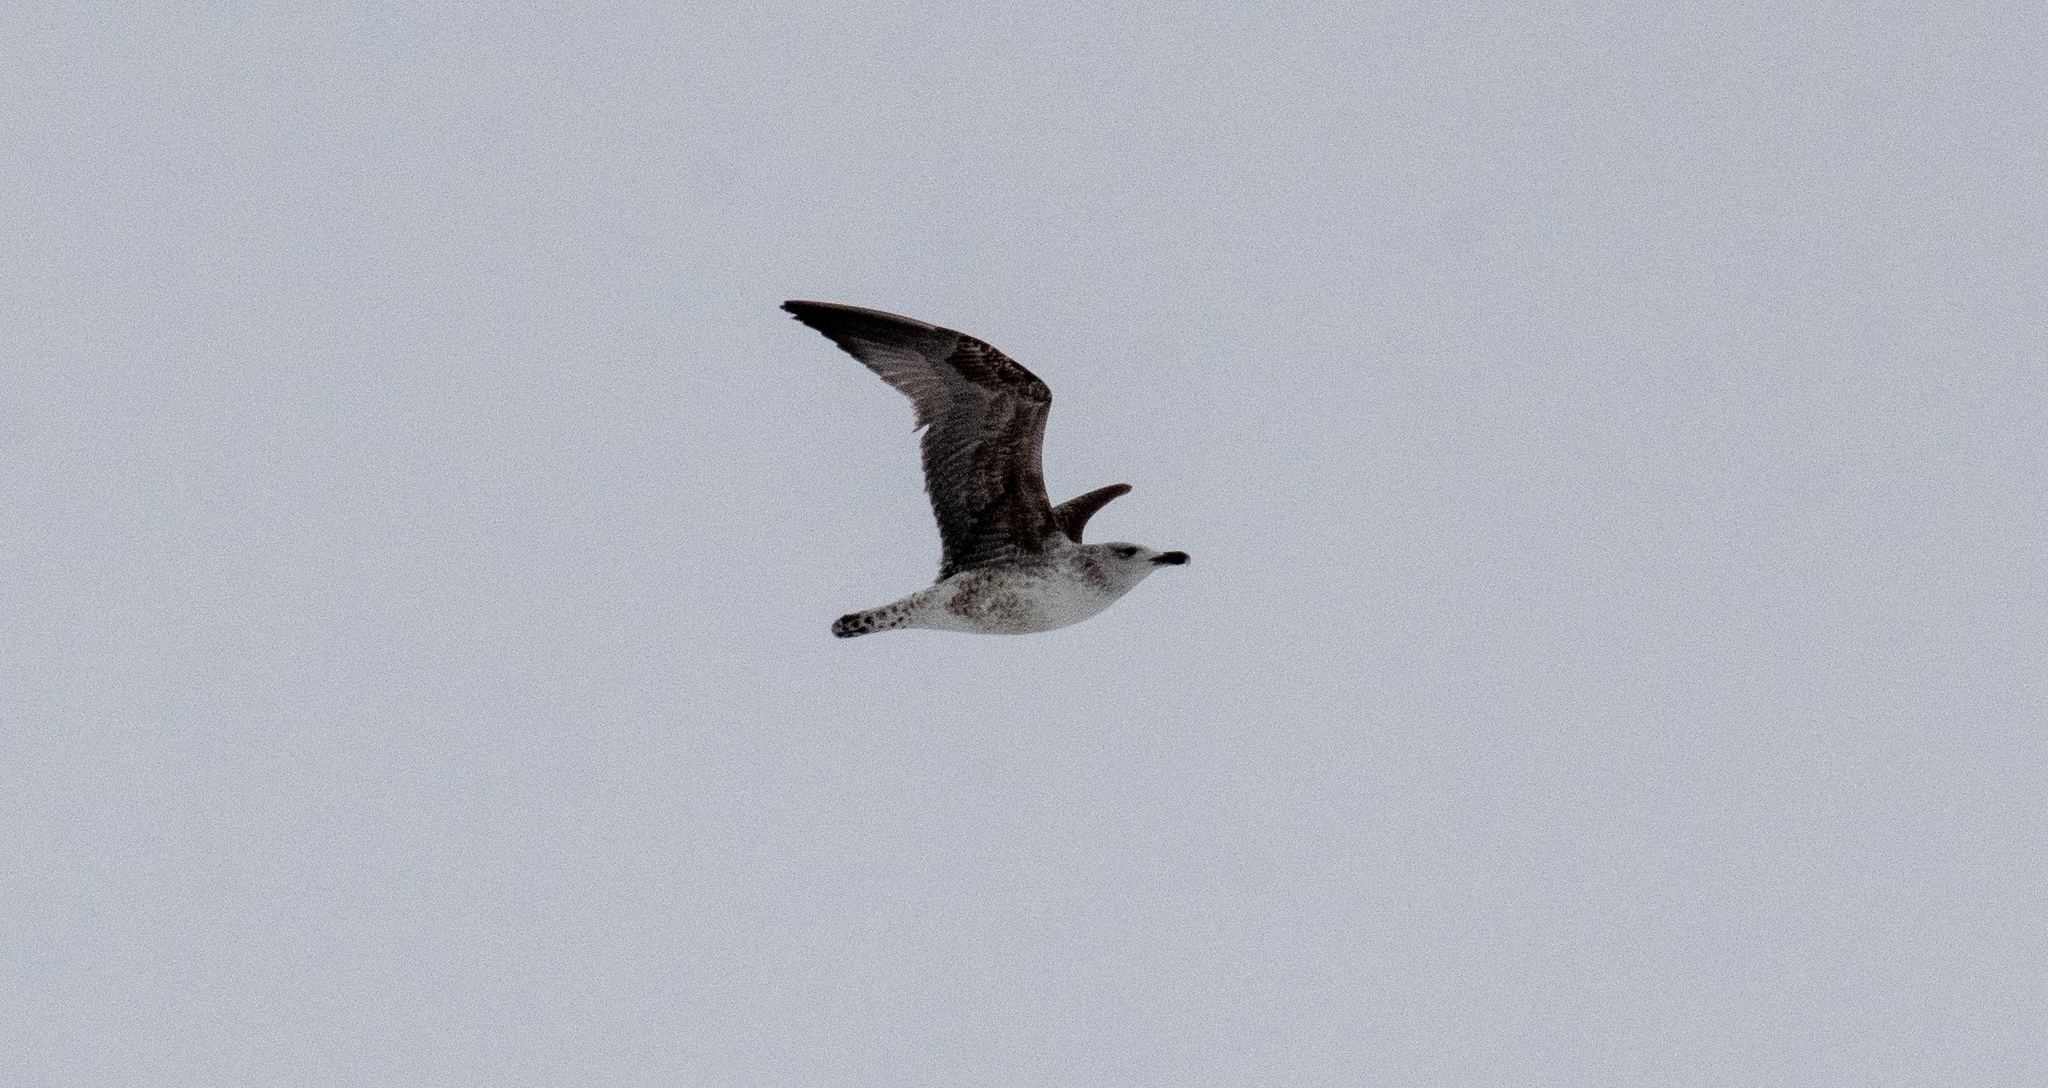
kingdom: Animalia
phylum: Chordata
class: Aves
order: Charadriiformes
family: Laridae
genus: Larus
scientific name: Larus michahellis
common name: Yellow-legged gull
